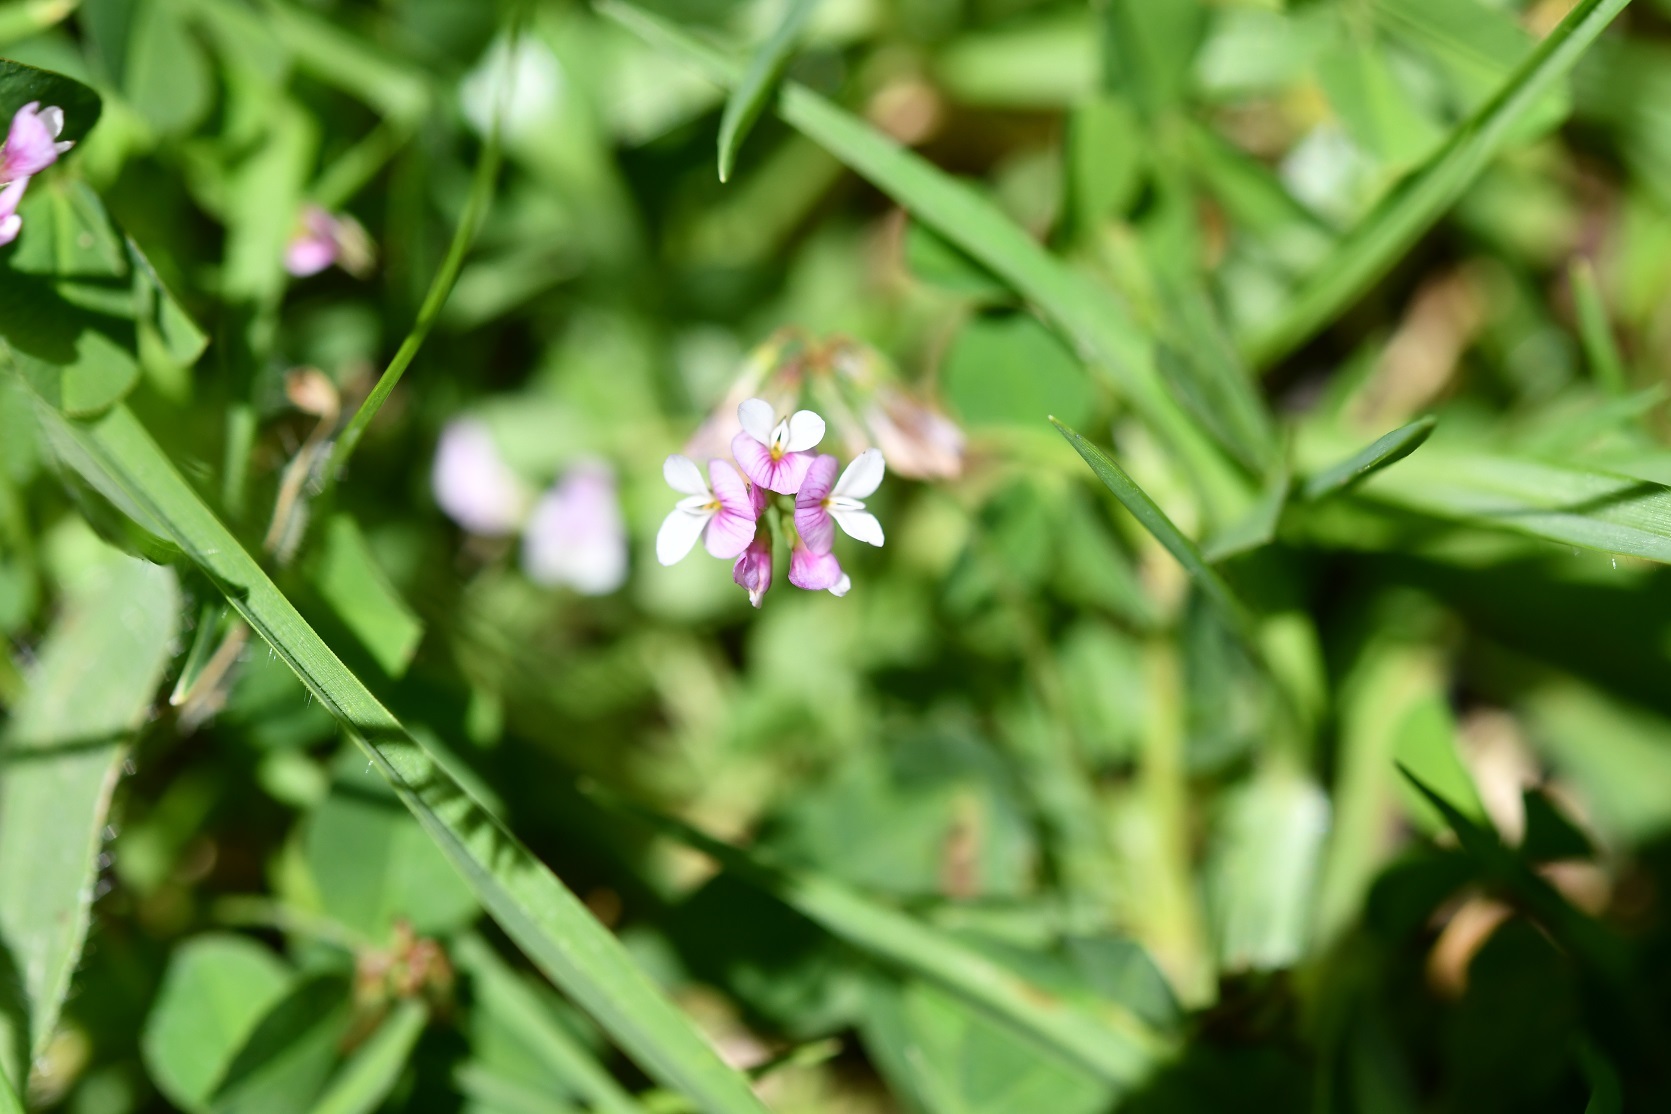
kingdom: Plantae
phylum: Tracheophyta
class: Magnoliopsida
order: Fabales
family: Fabaceae
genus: Trifolium
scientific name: Trifolium amabile
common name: Aztec clover
